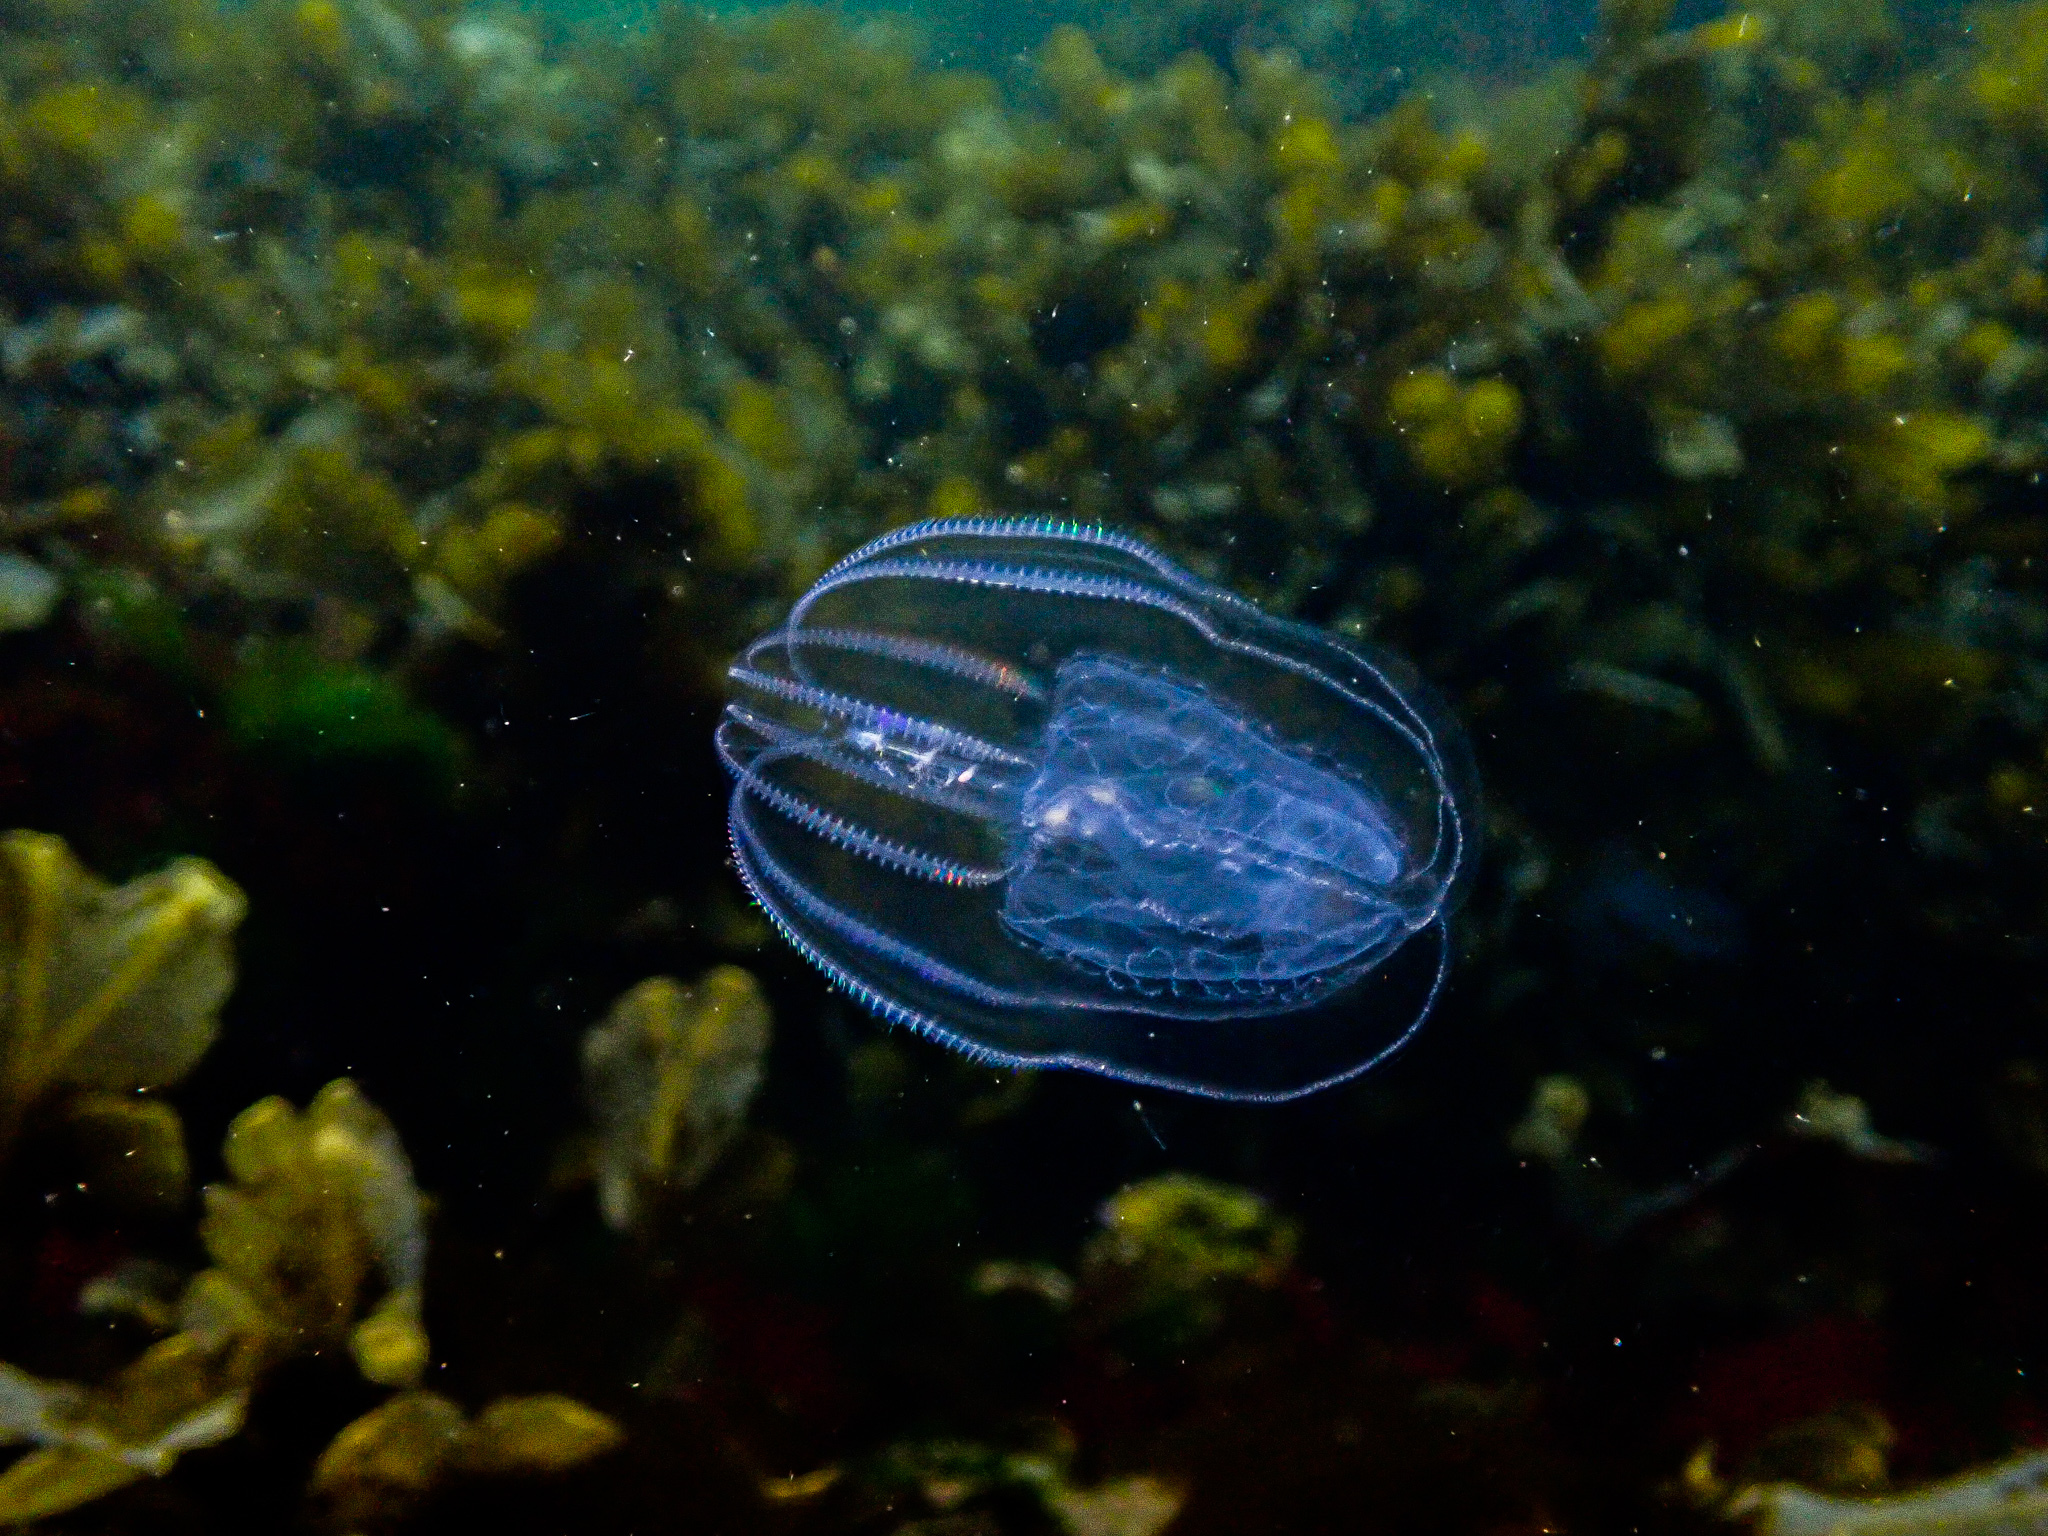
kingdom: Animalia
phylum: Ctenophora
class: Tentaculata
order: Lobata
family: Bolinopsidae
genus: Bolinopsis
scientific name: Bolinopsis infundibulum
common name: Common northern comb jelly
